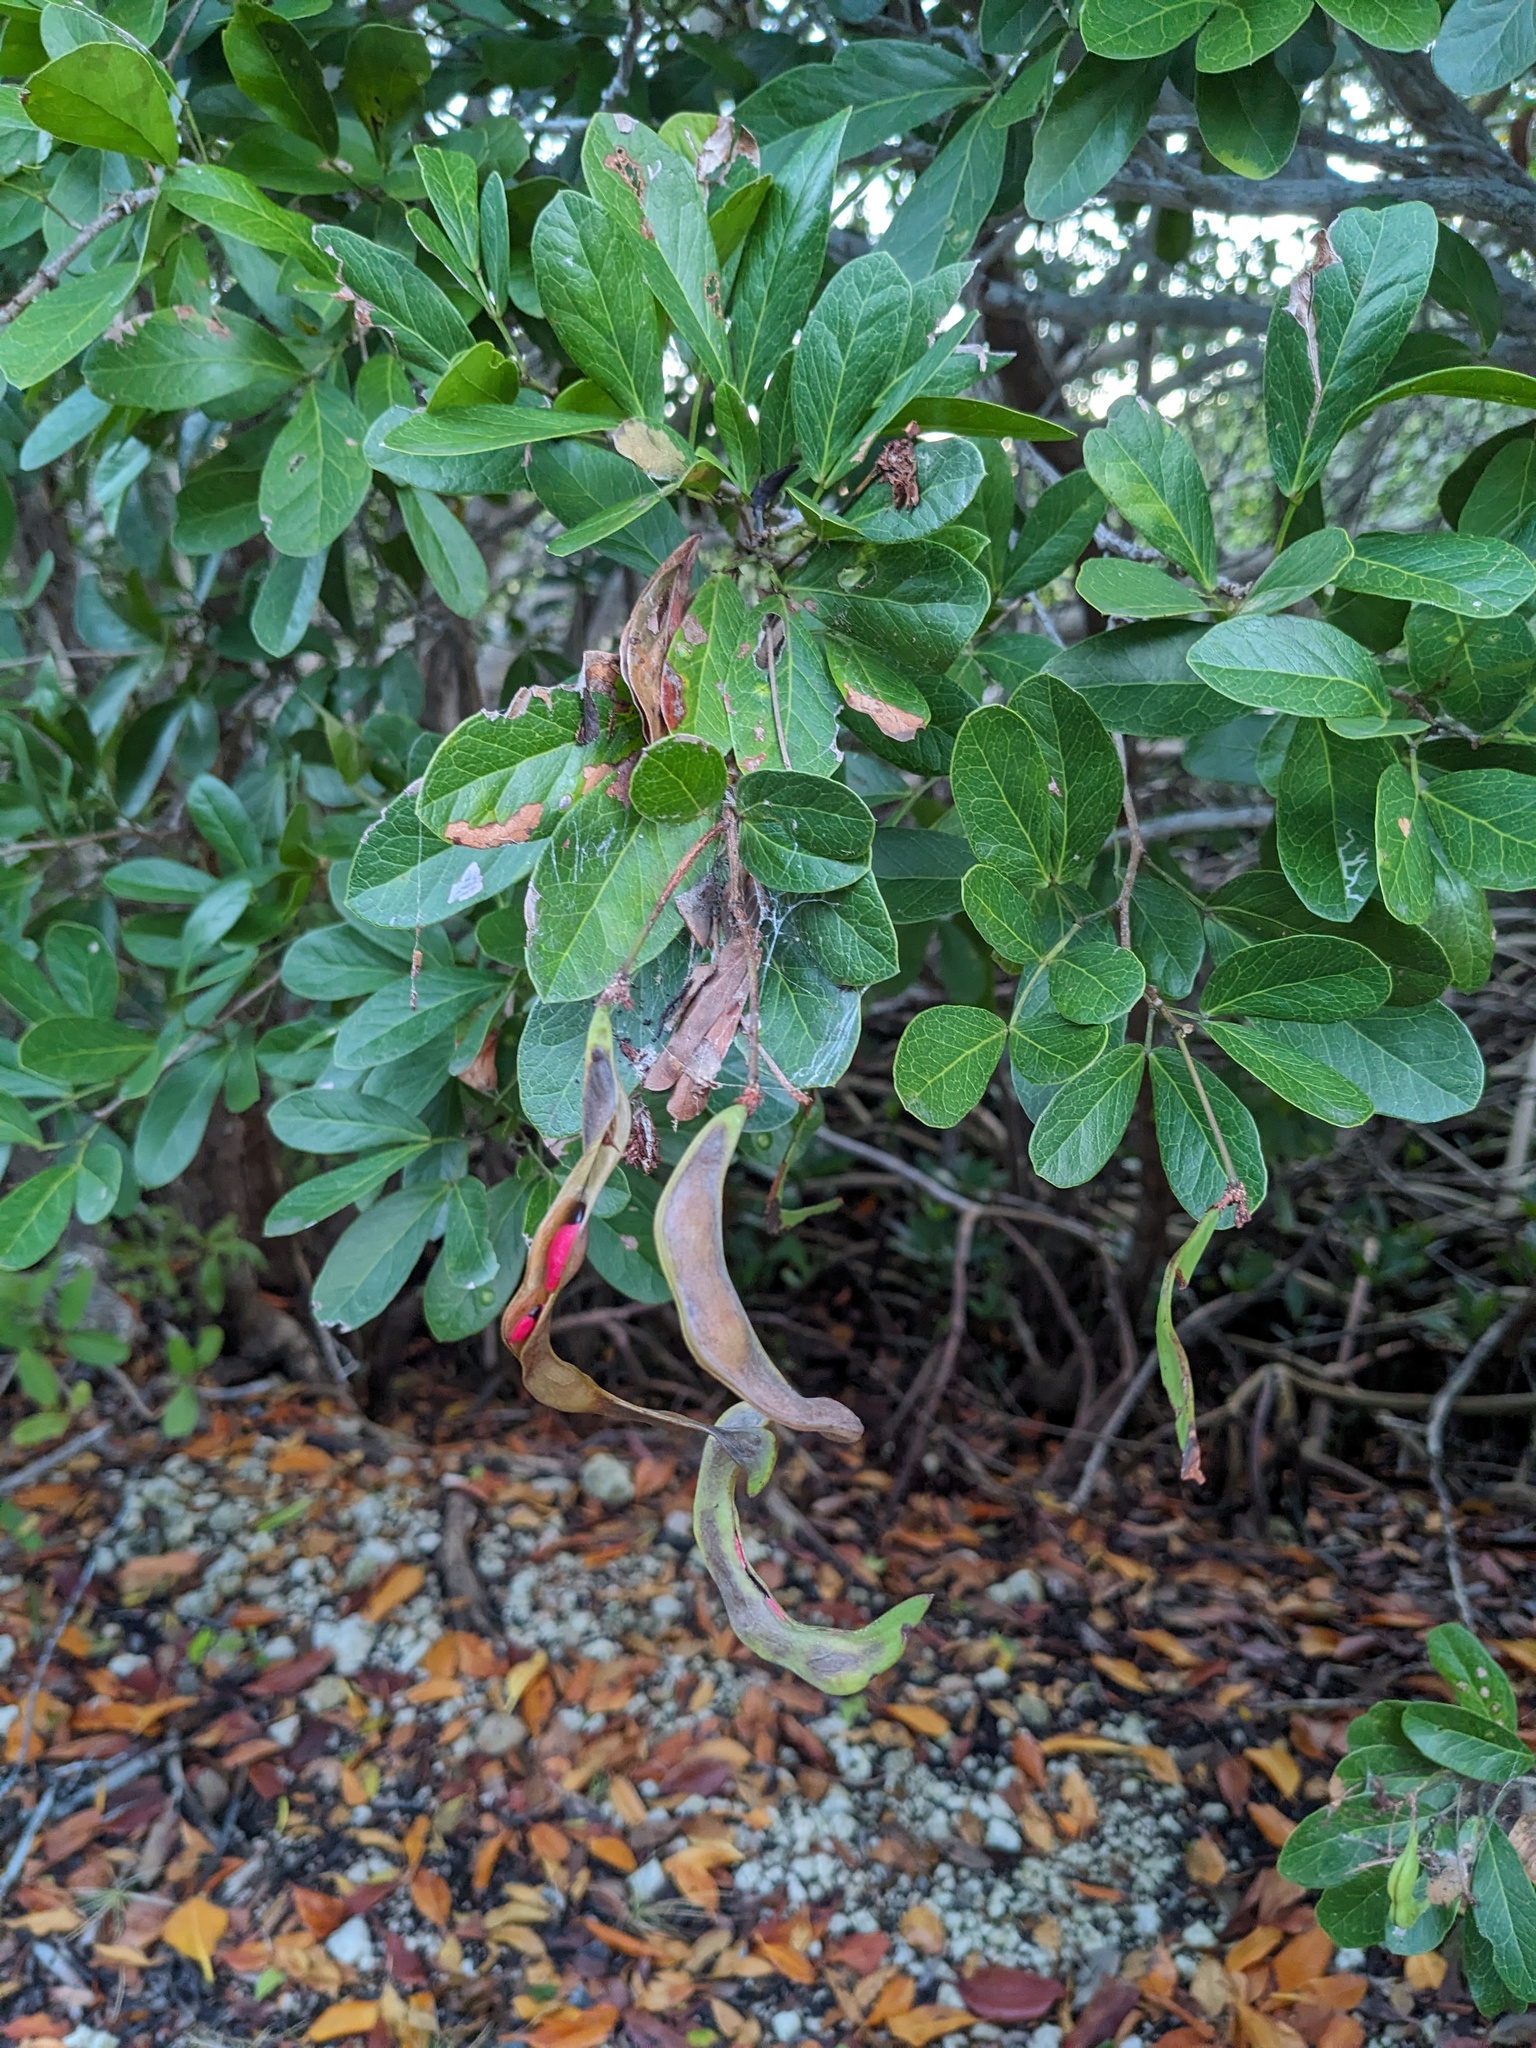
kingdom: Plantae
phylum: Tracheophyta
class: Magnoliopsida
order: Fabales
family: Fabaceae
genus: Pithecellobium
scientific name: Pithecellobium keyense
